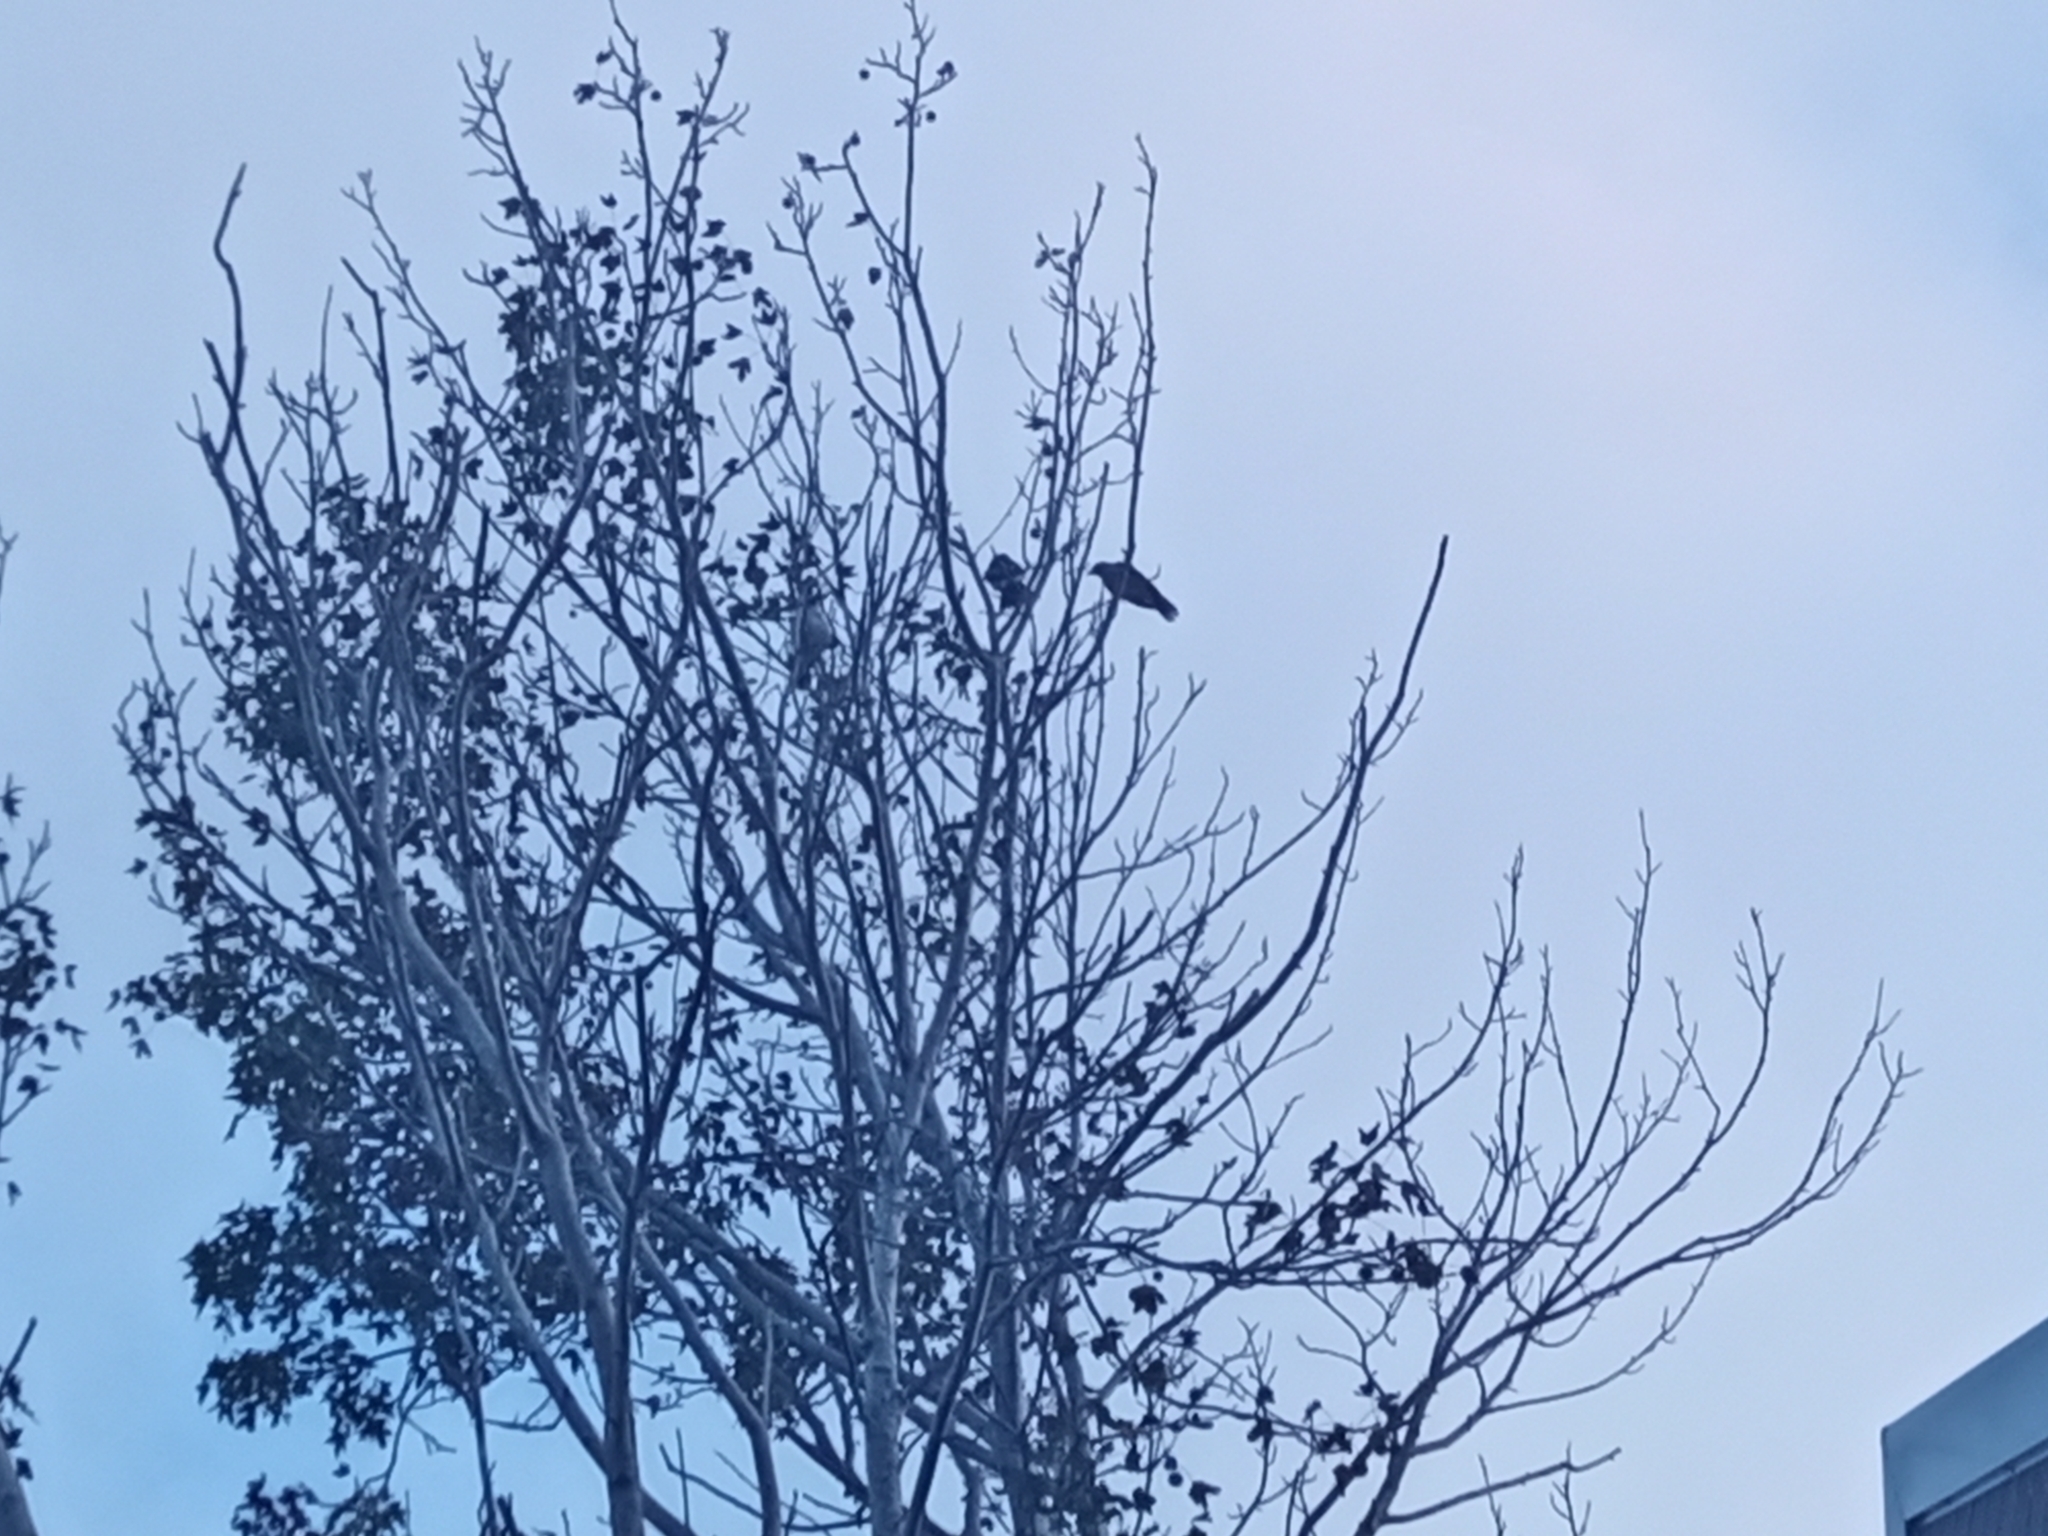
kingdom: Animalia
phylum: Chordata
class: Aves
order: Passeriformes
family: Cracticidae
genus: Cracticus
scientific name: Cracticus torquatus
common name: Grey butcherbird
